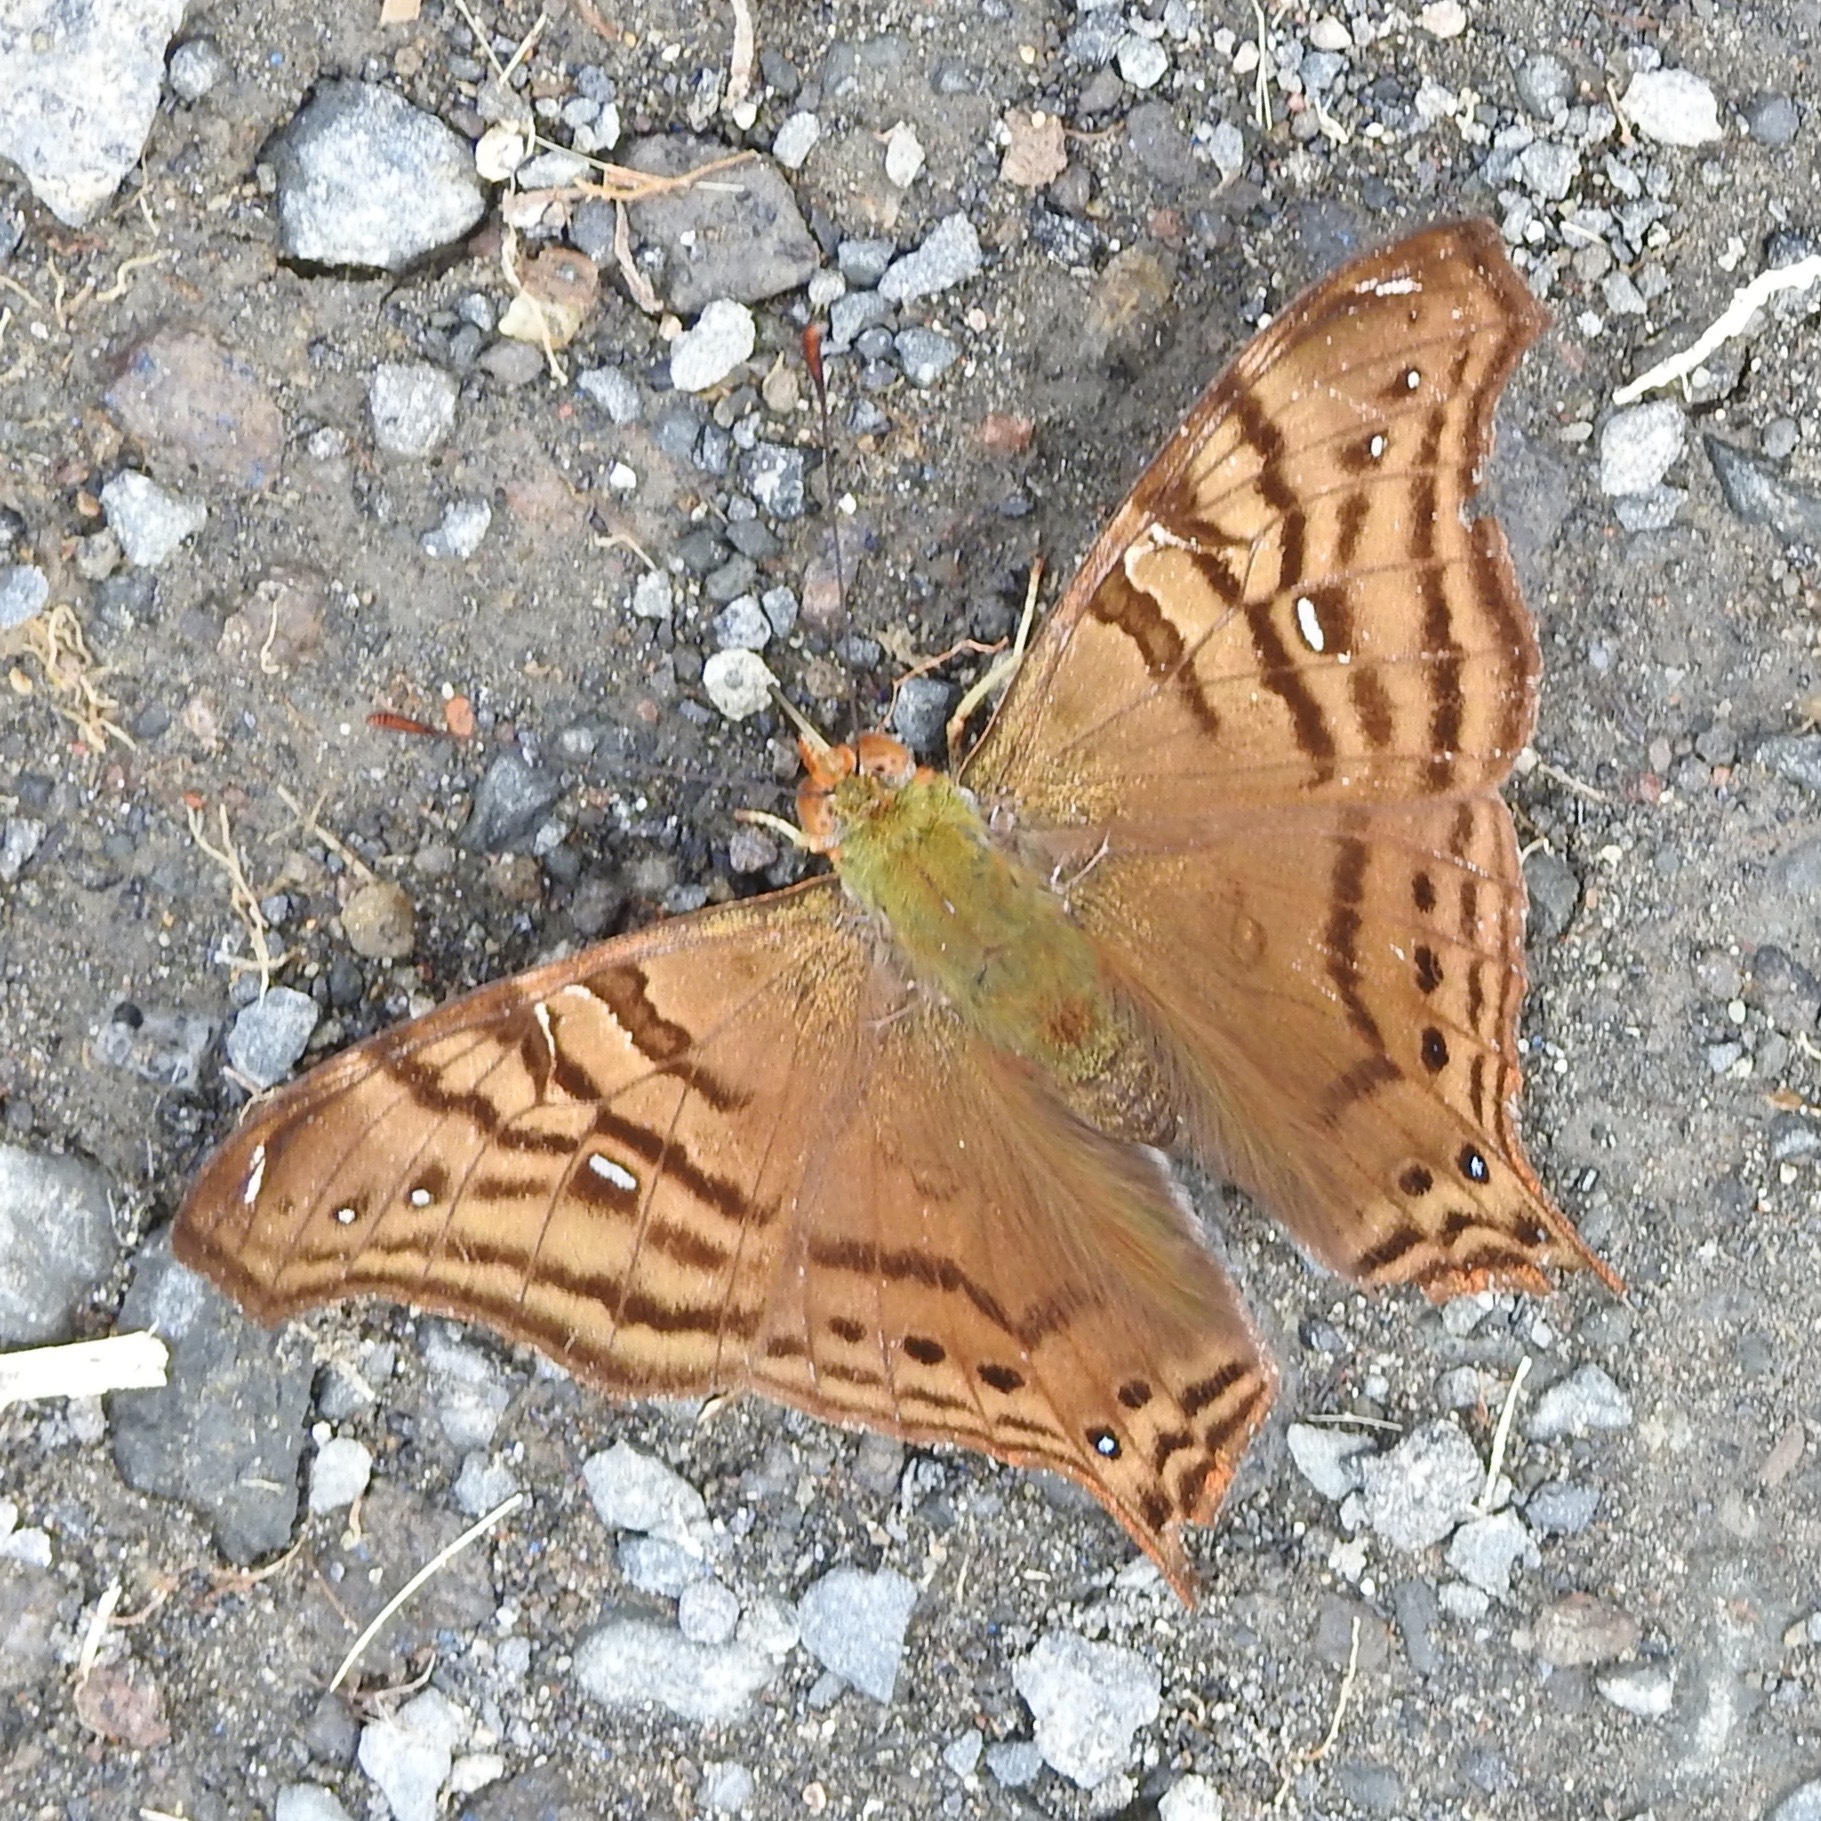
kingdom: Animalia
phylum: Arthropoda
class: Insecta
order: Lepidoptera
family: Nymphalidae
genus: Hypanartia
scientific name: Hypanartia dione
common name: Banded mapwing
